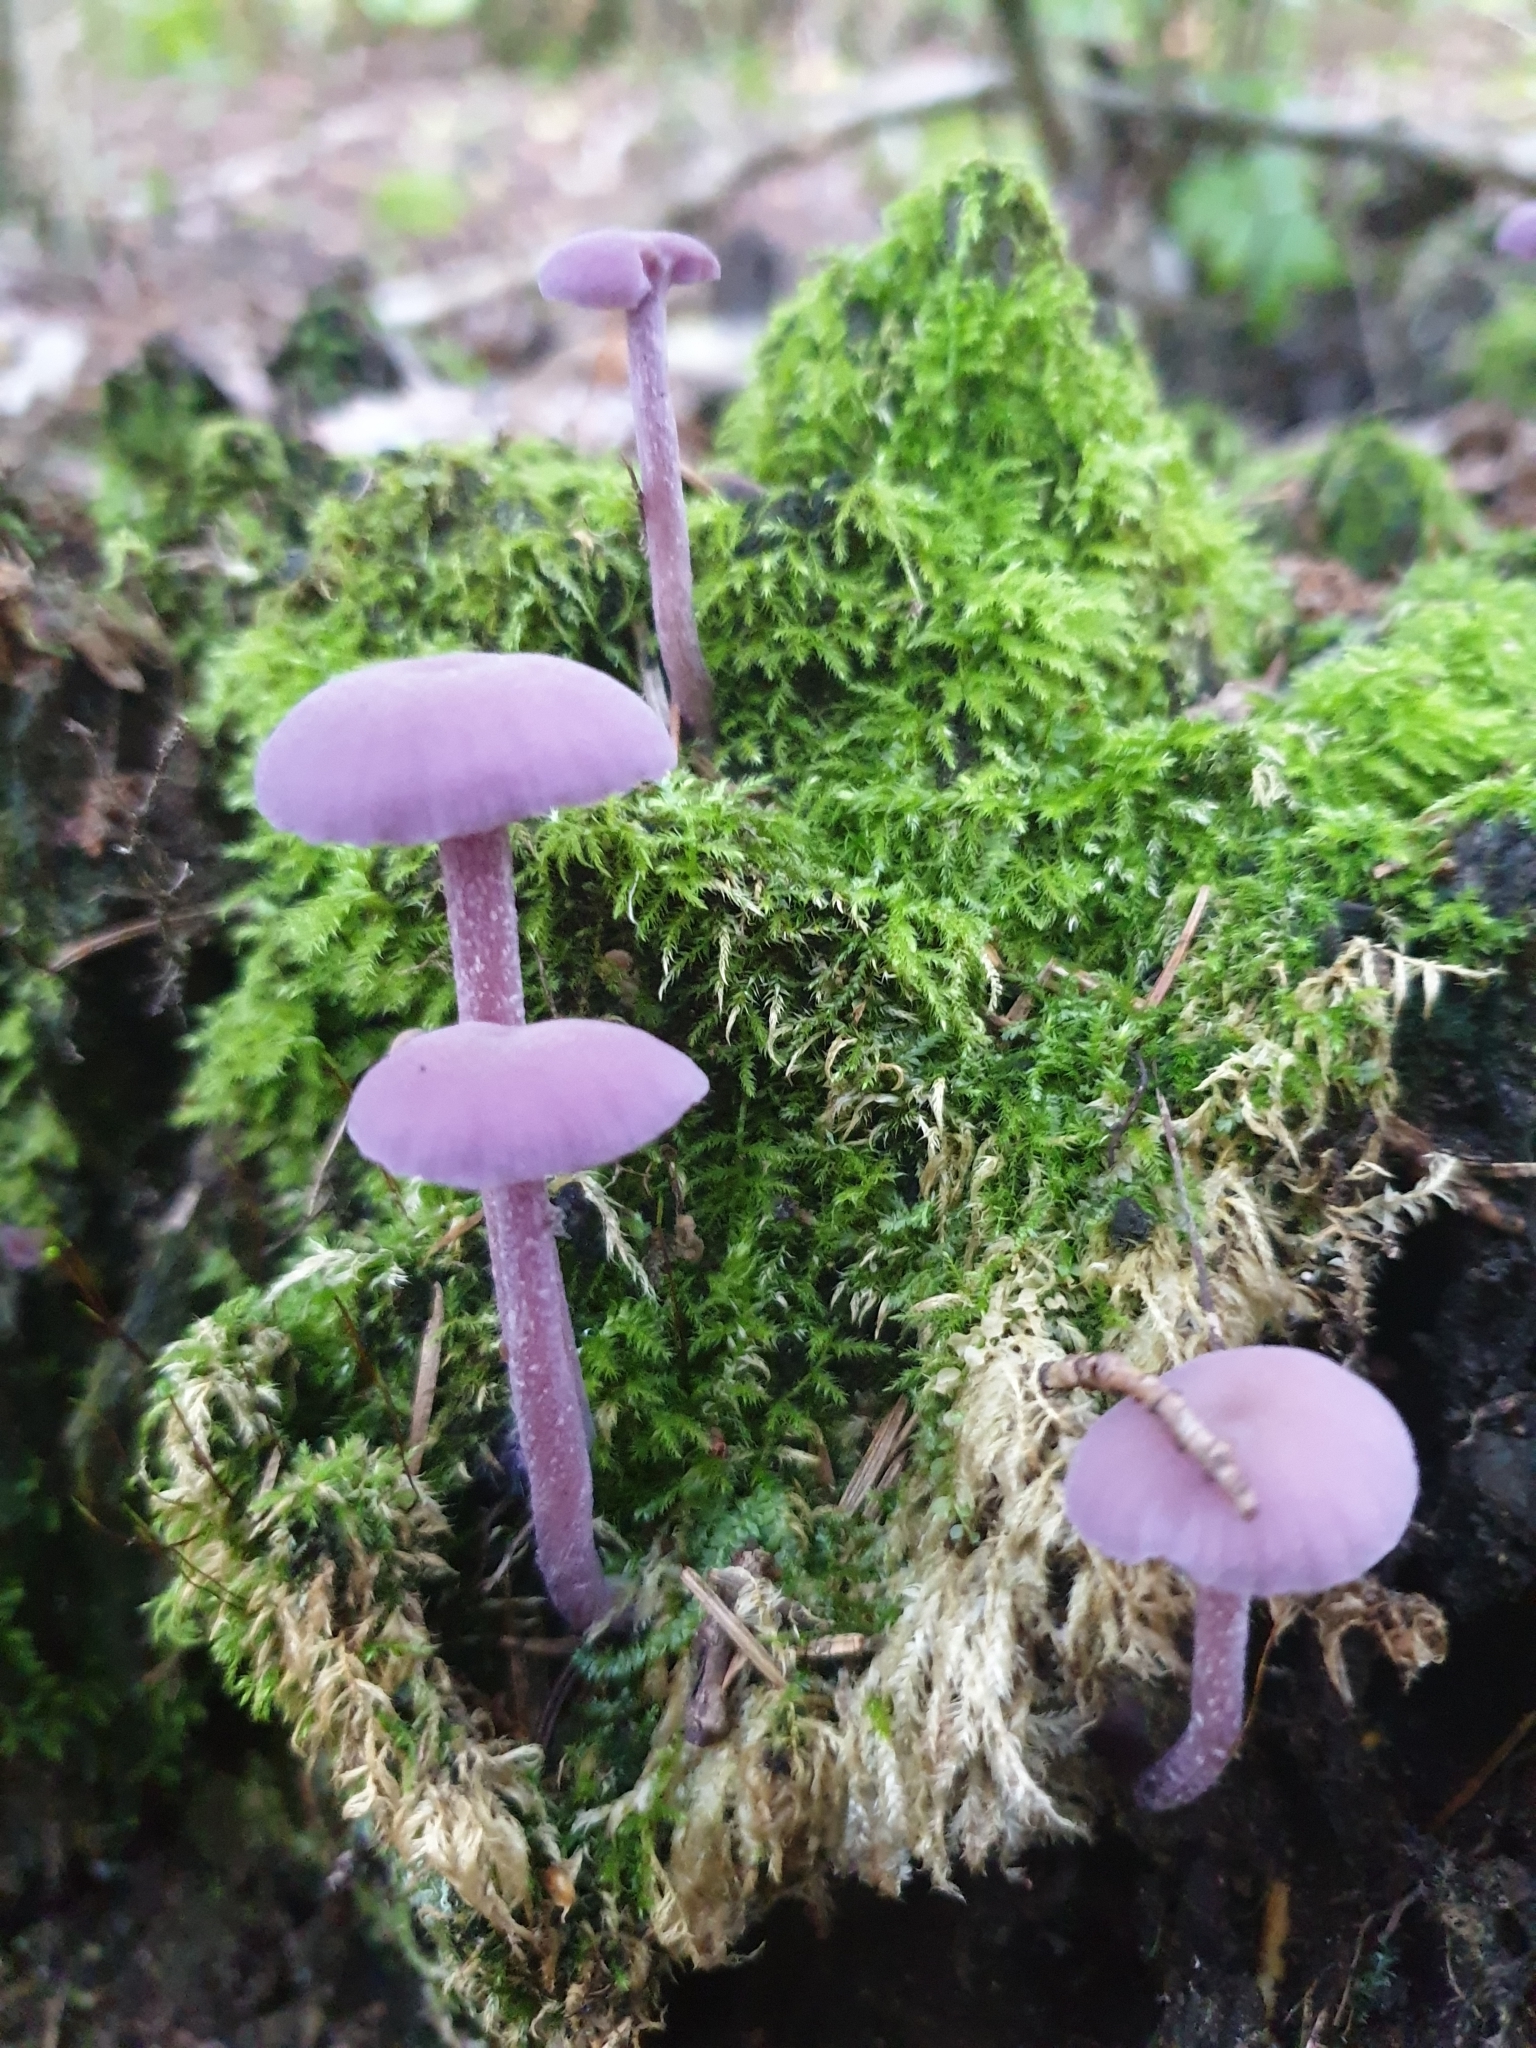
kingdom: Fungi
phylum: Basidiomycota
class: Agaricomycetes
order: Agaricales
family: Hydnangiaceae
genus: Laccaria
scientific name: Laccaria amethystina
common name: Amethyst deceiver
